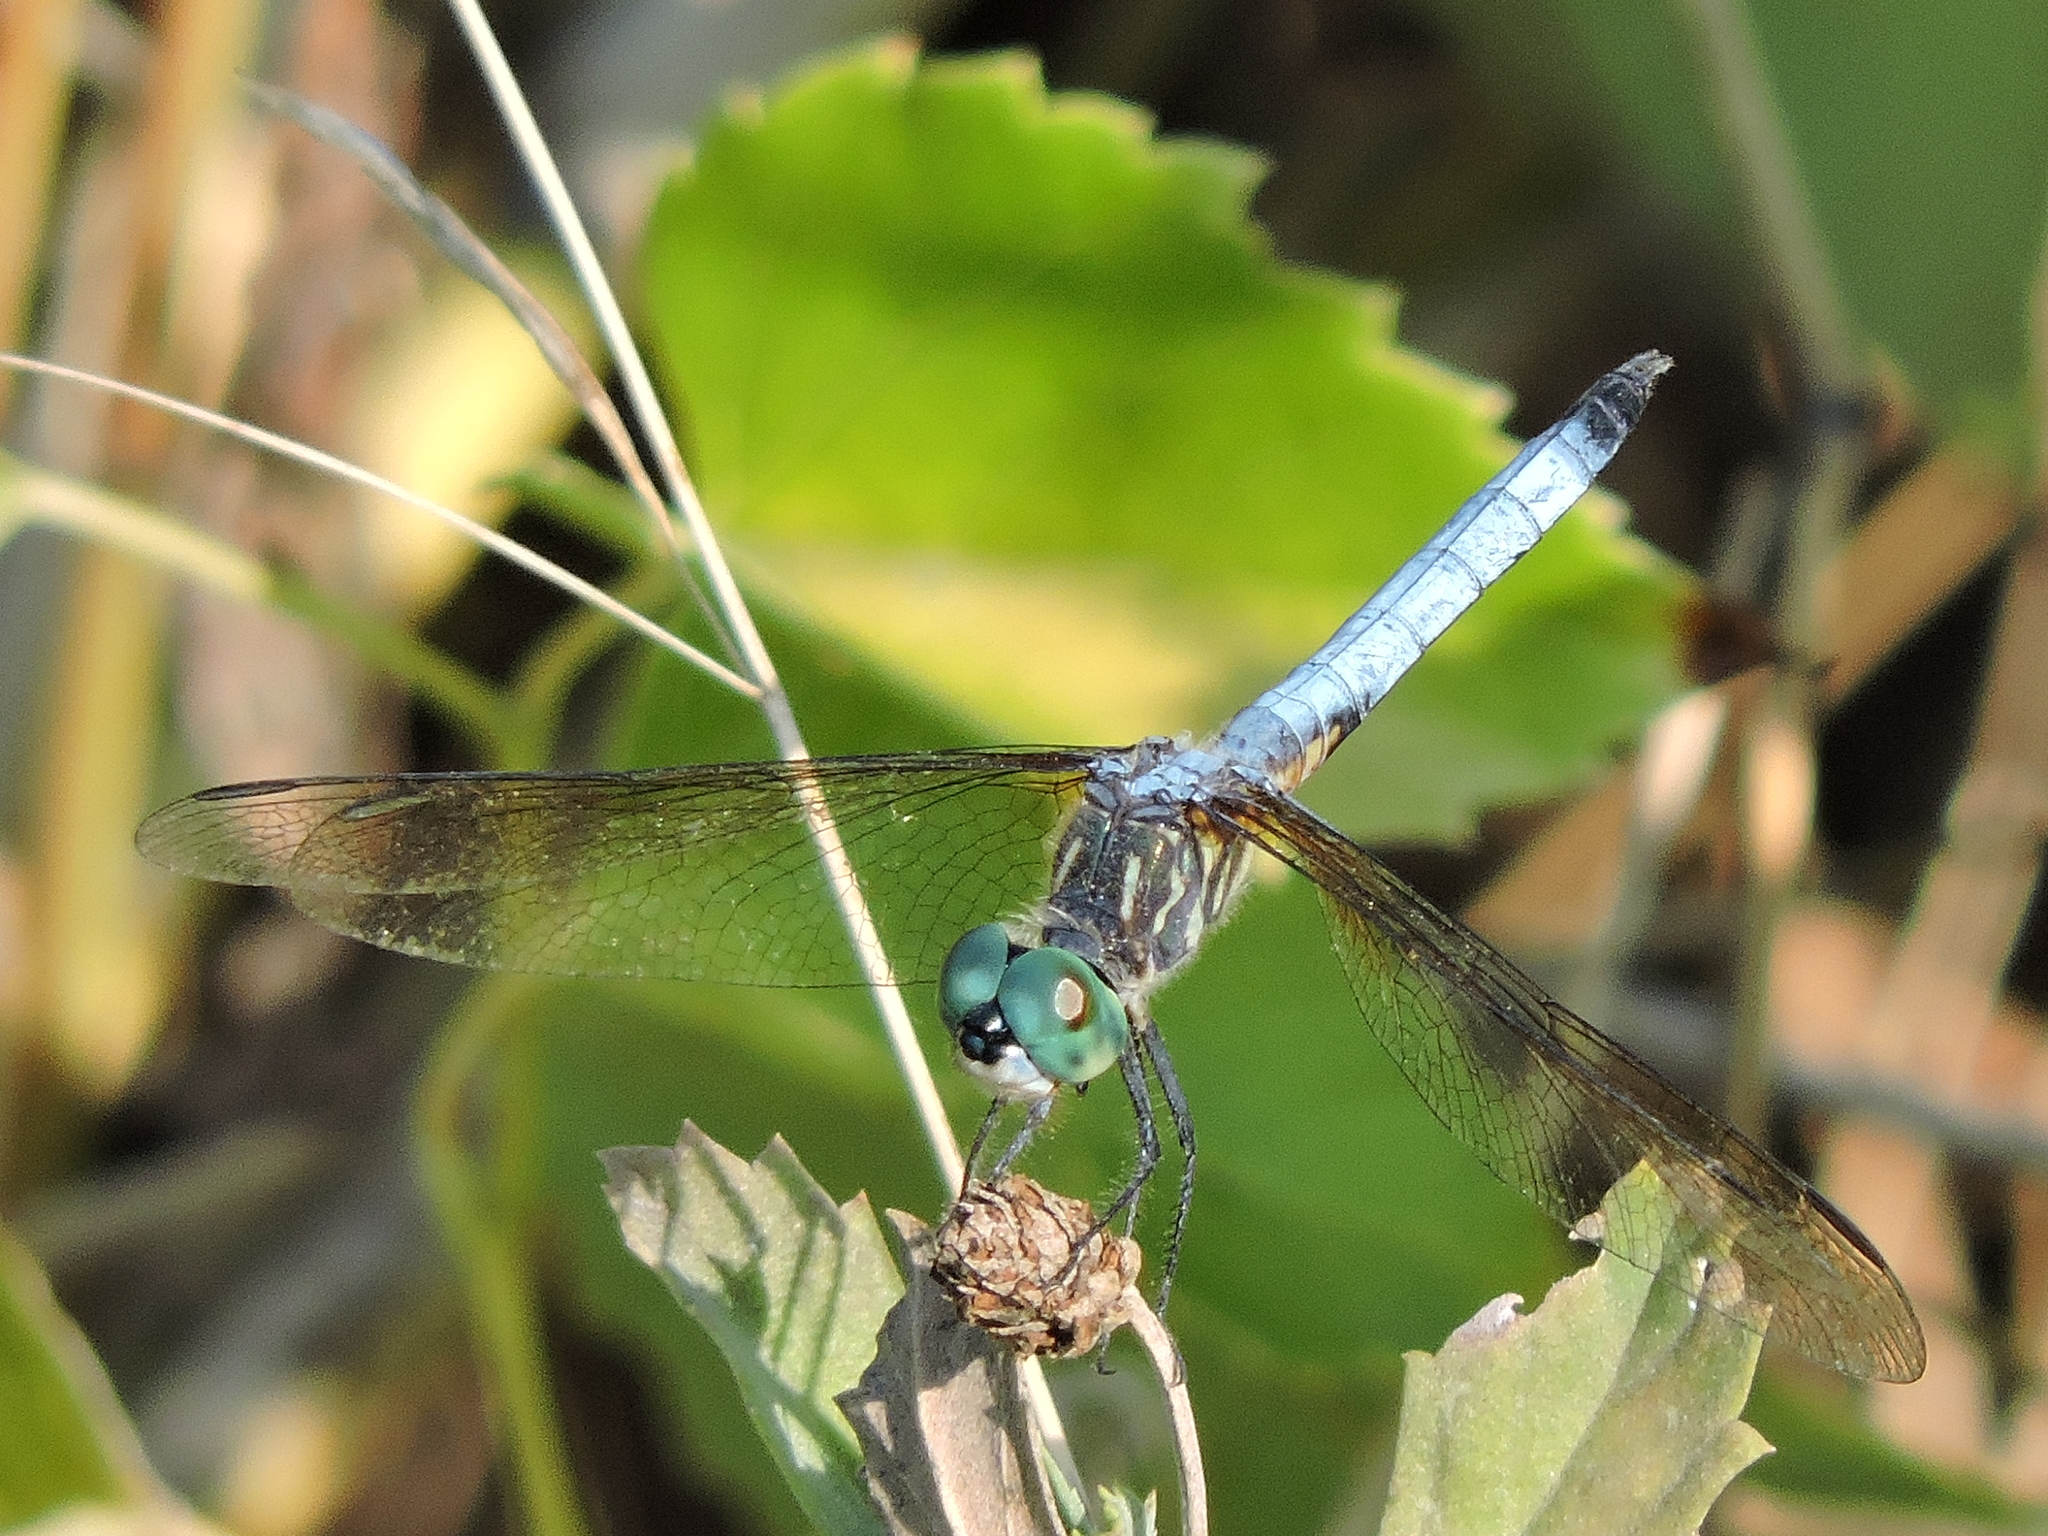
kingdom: Animalia
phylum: Arthropoda
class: Insecta
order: Odonata
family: Libellulidae
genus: Pachydiplax
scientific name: Pachydiplax longipennis
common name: Blue dasher
